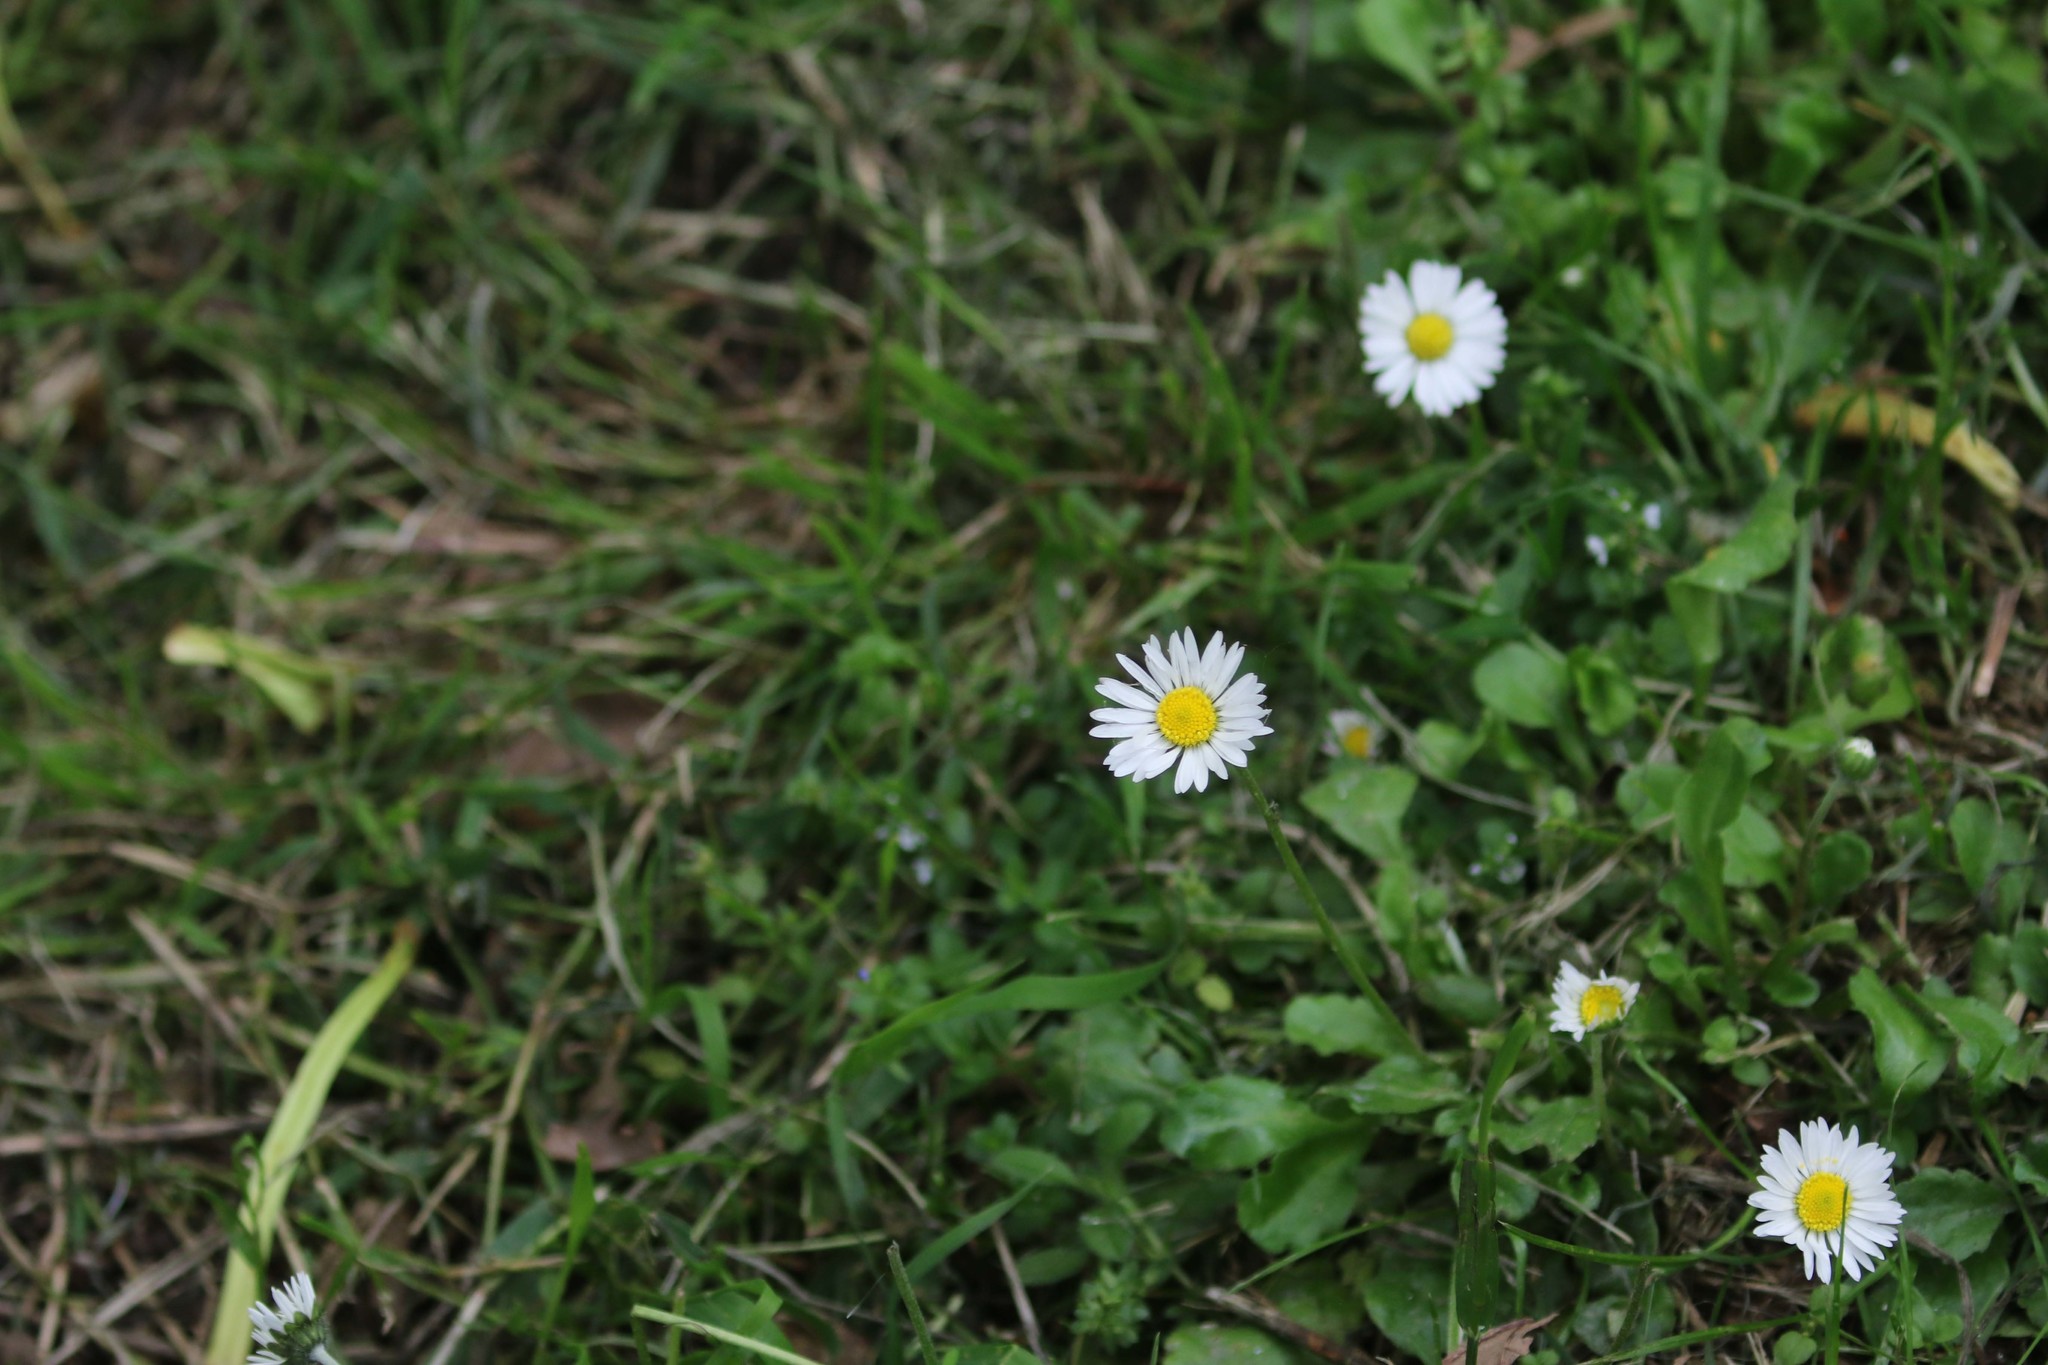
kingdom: Plantae
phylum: Tracheophyta
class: Magnoliopsida
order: Asterales
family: Asteraceae
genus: Bellis
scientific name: Bellis perennis
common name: Lawndaisy
